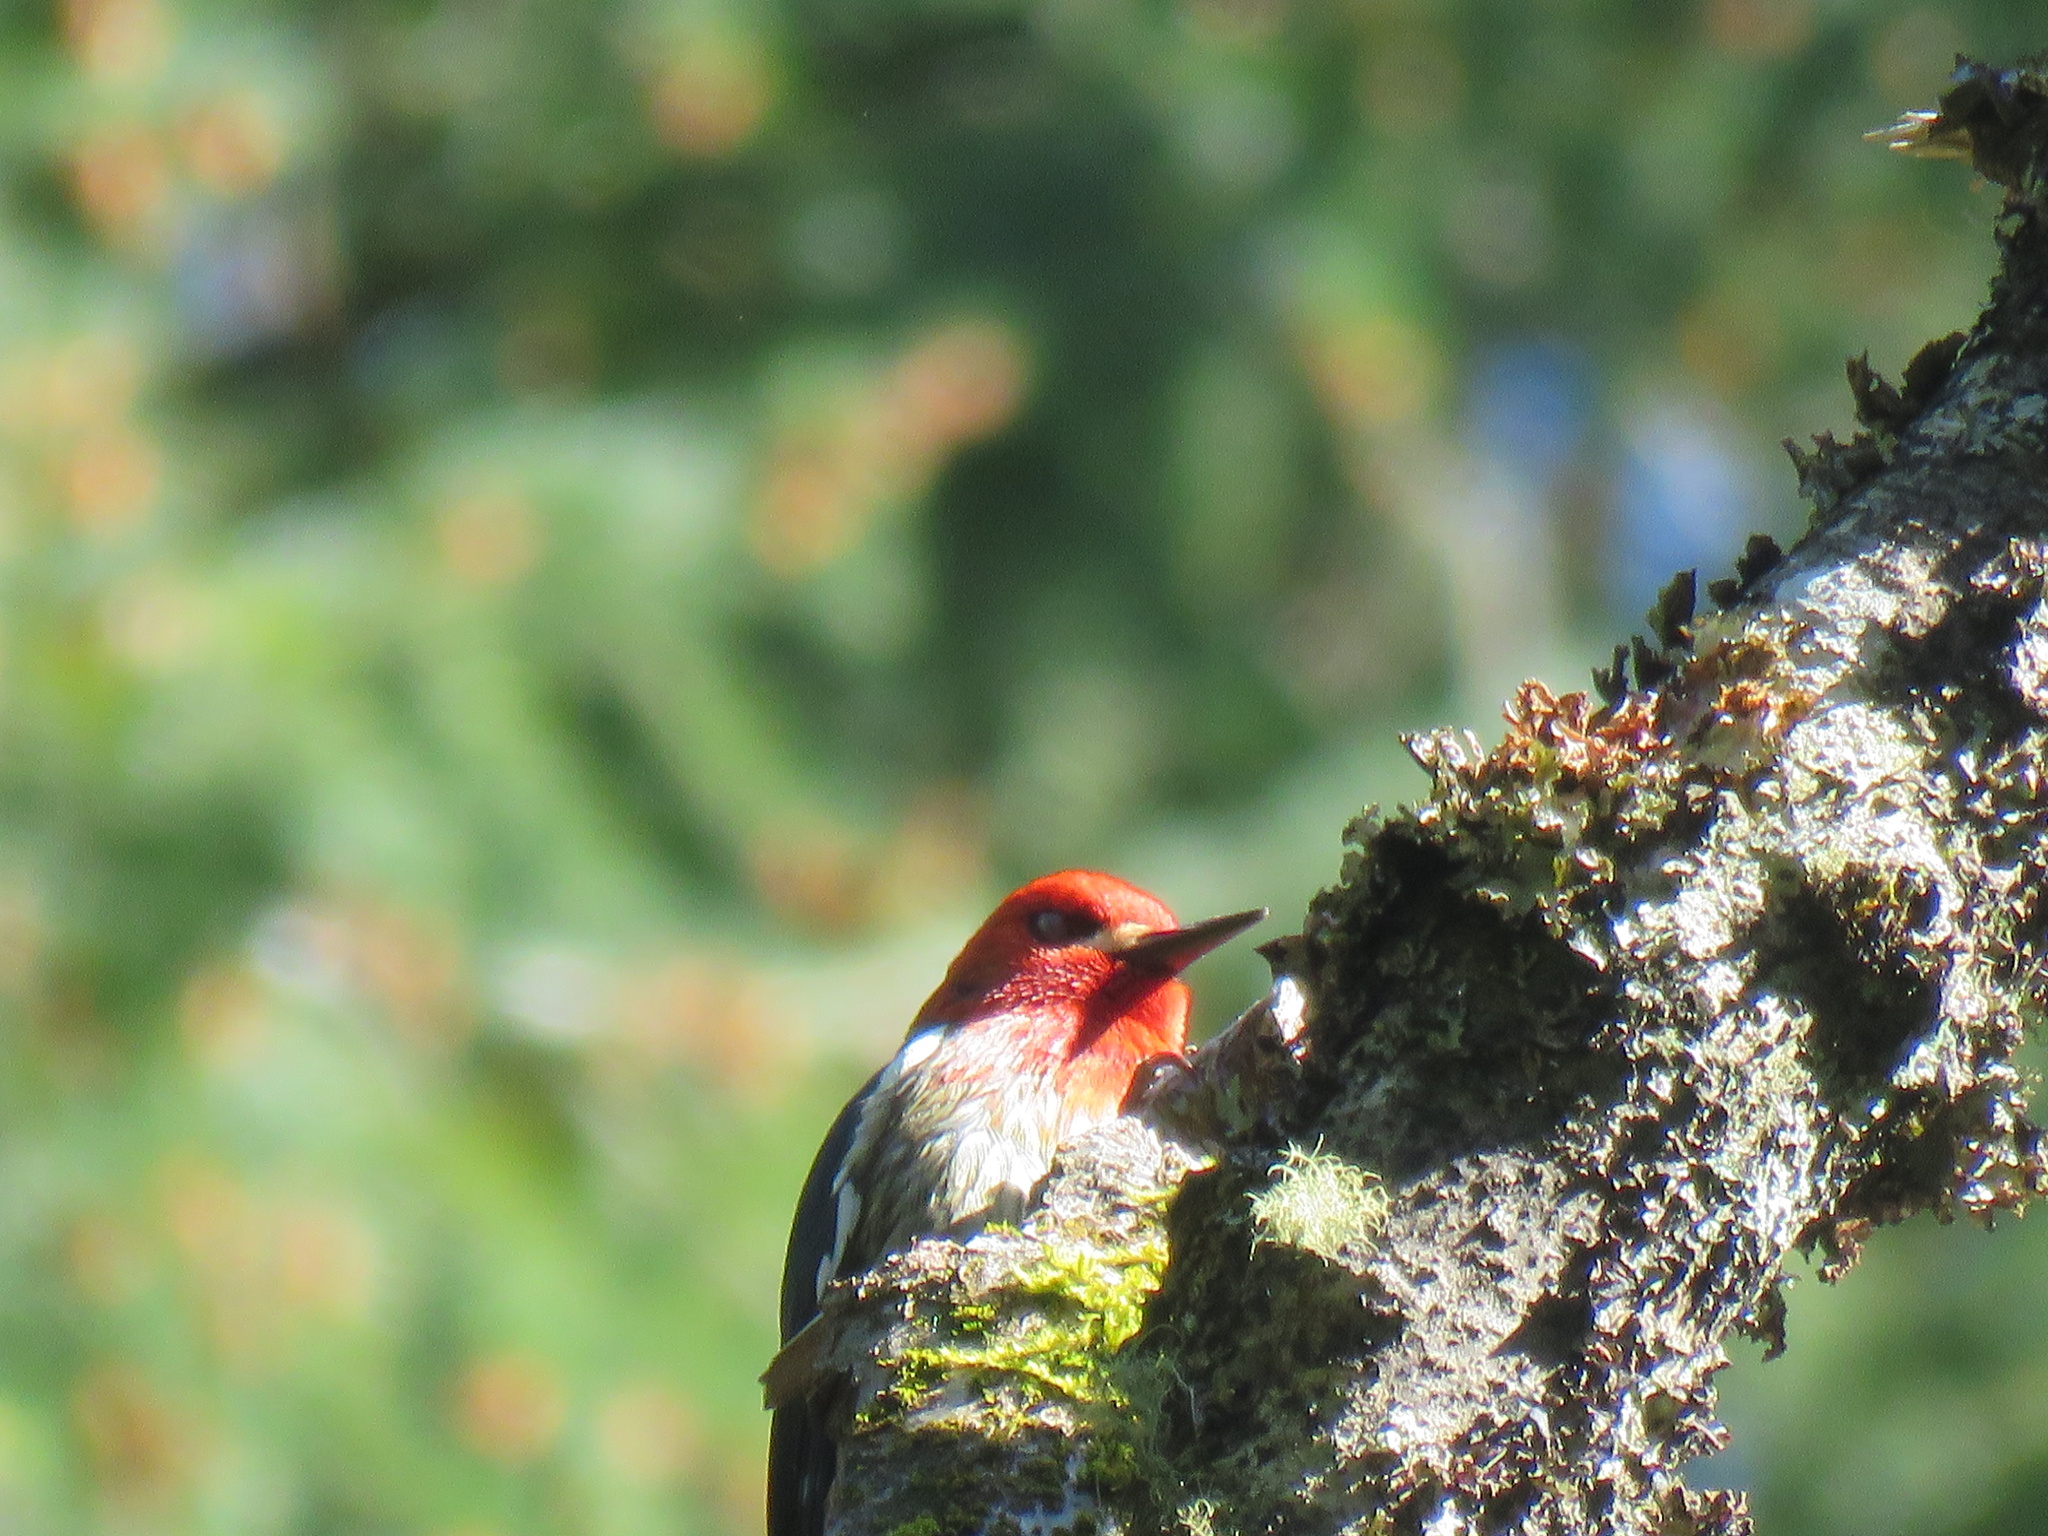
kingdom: Animalia
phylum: Chordata
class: Aves
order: Piciformes
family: Picidae
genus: Sphyrapicus
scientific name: Sphyrapicus ruber
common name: Red-breasted sapsucker
